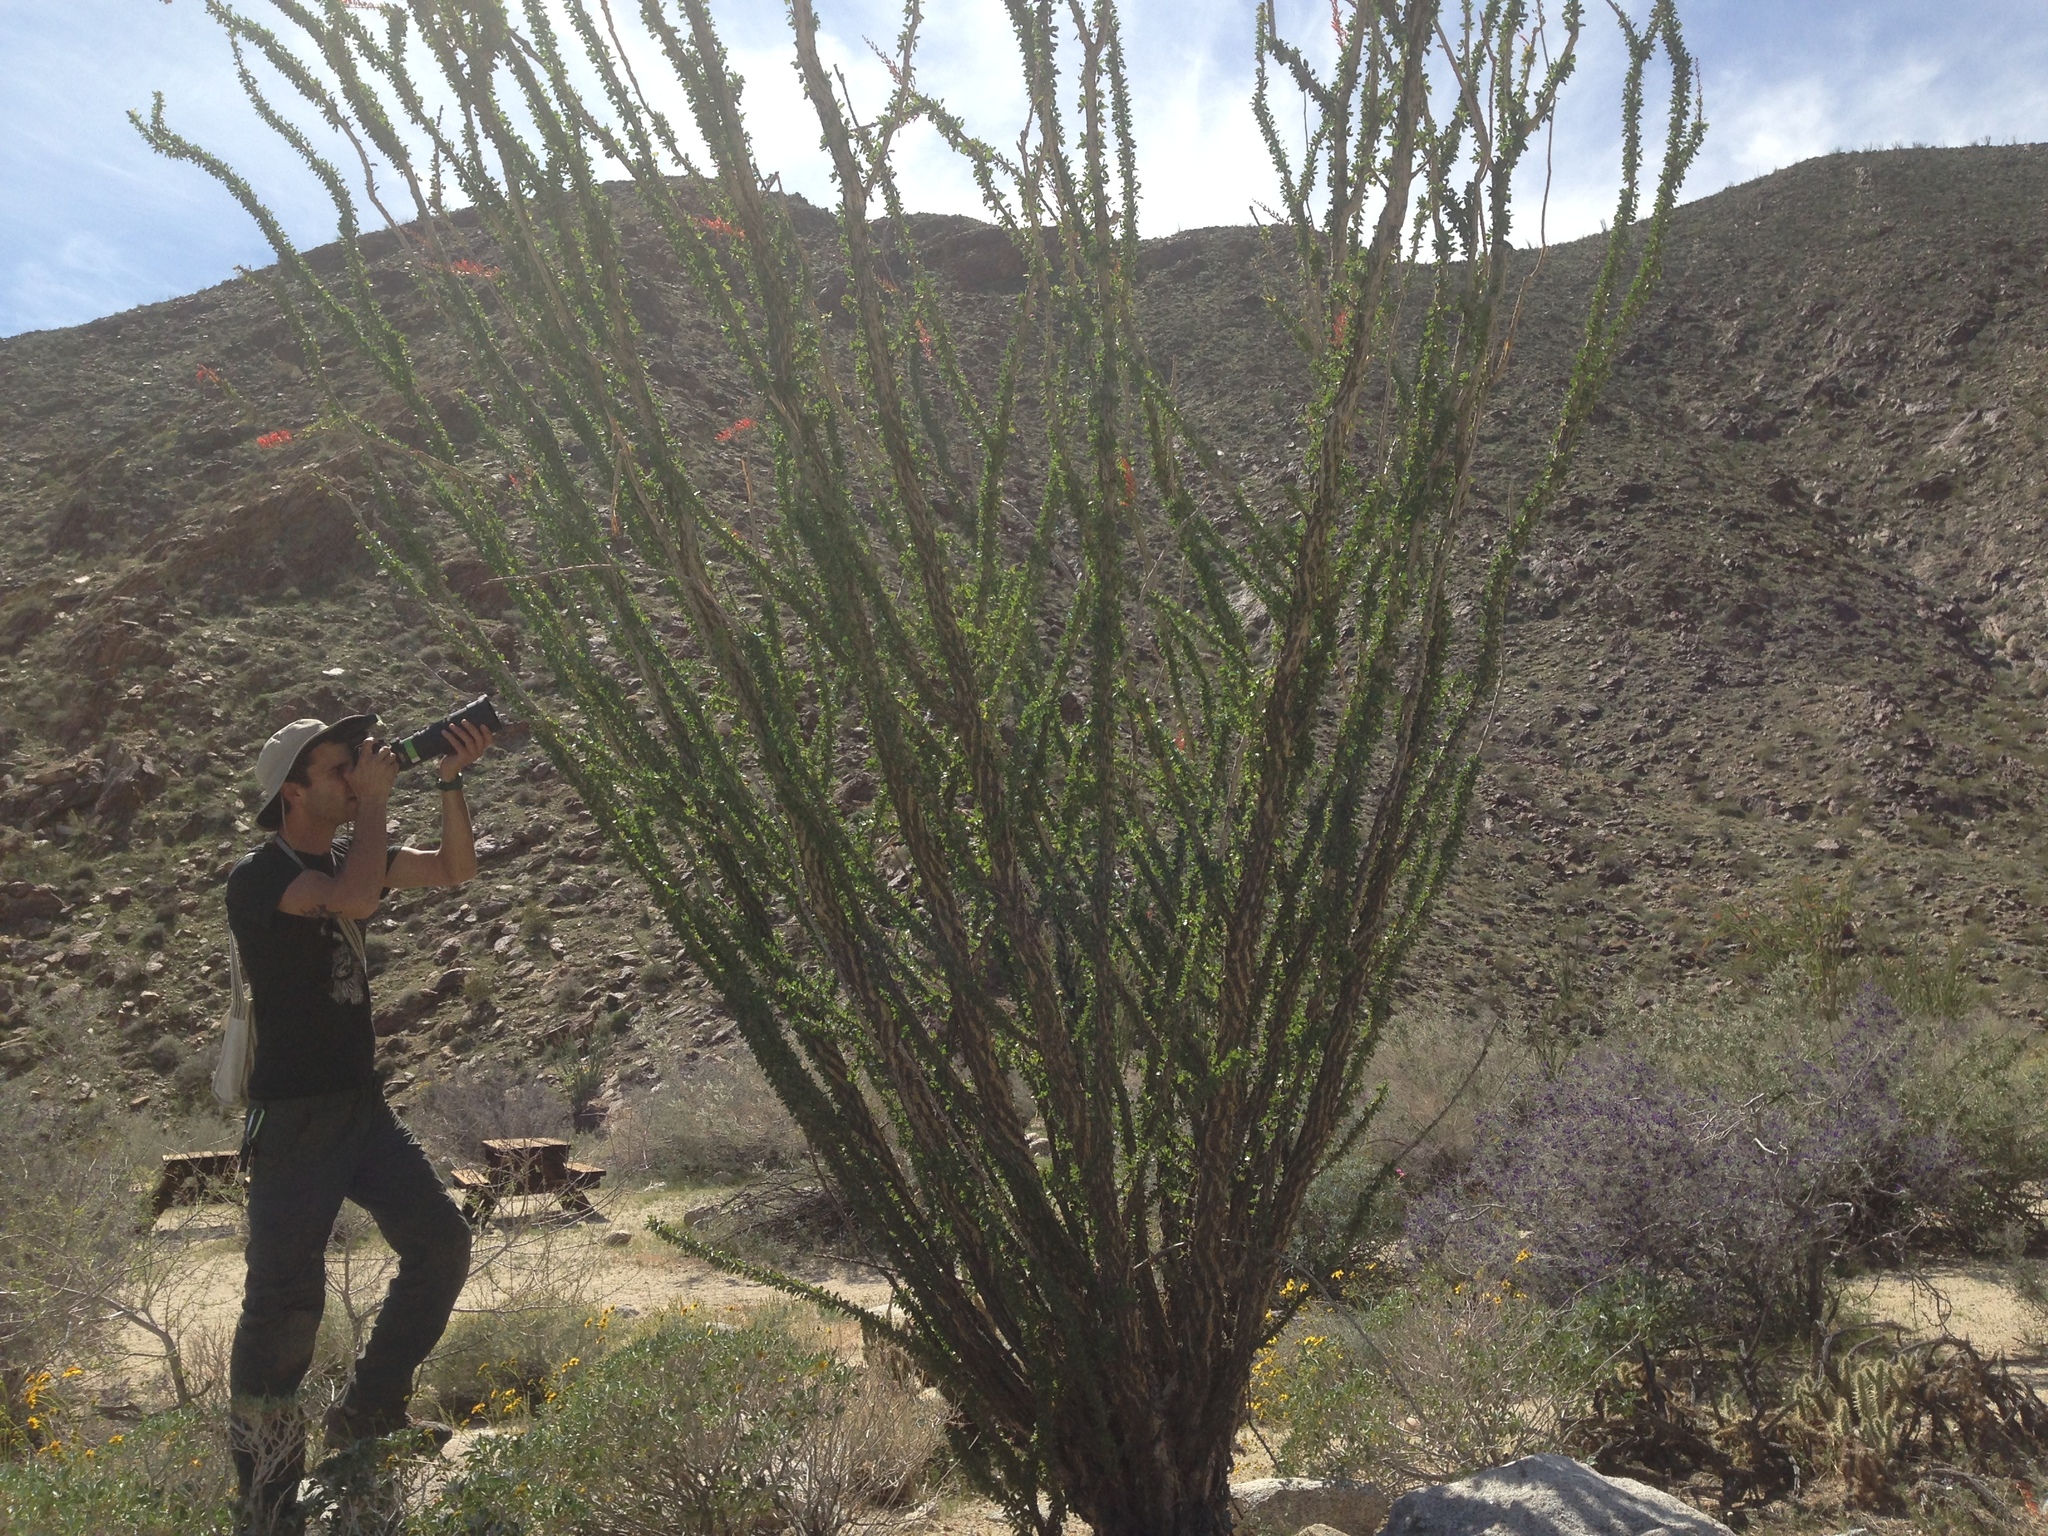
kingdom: Plantae
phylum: Tracheophyta
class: Magnoliopsida
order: Ericales
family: Fouquieriaceae
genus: Fouquieria
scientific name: Fouquieria splendens
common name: Vine-cactus
